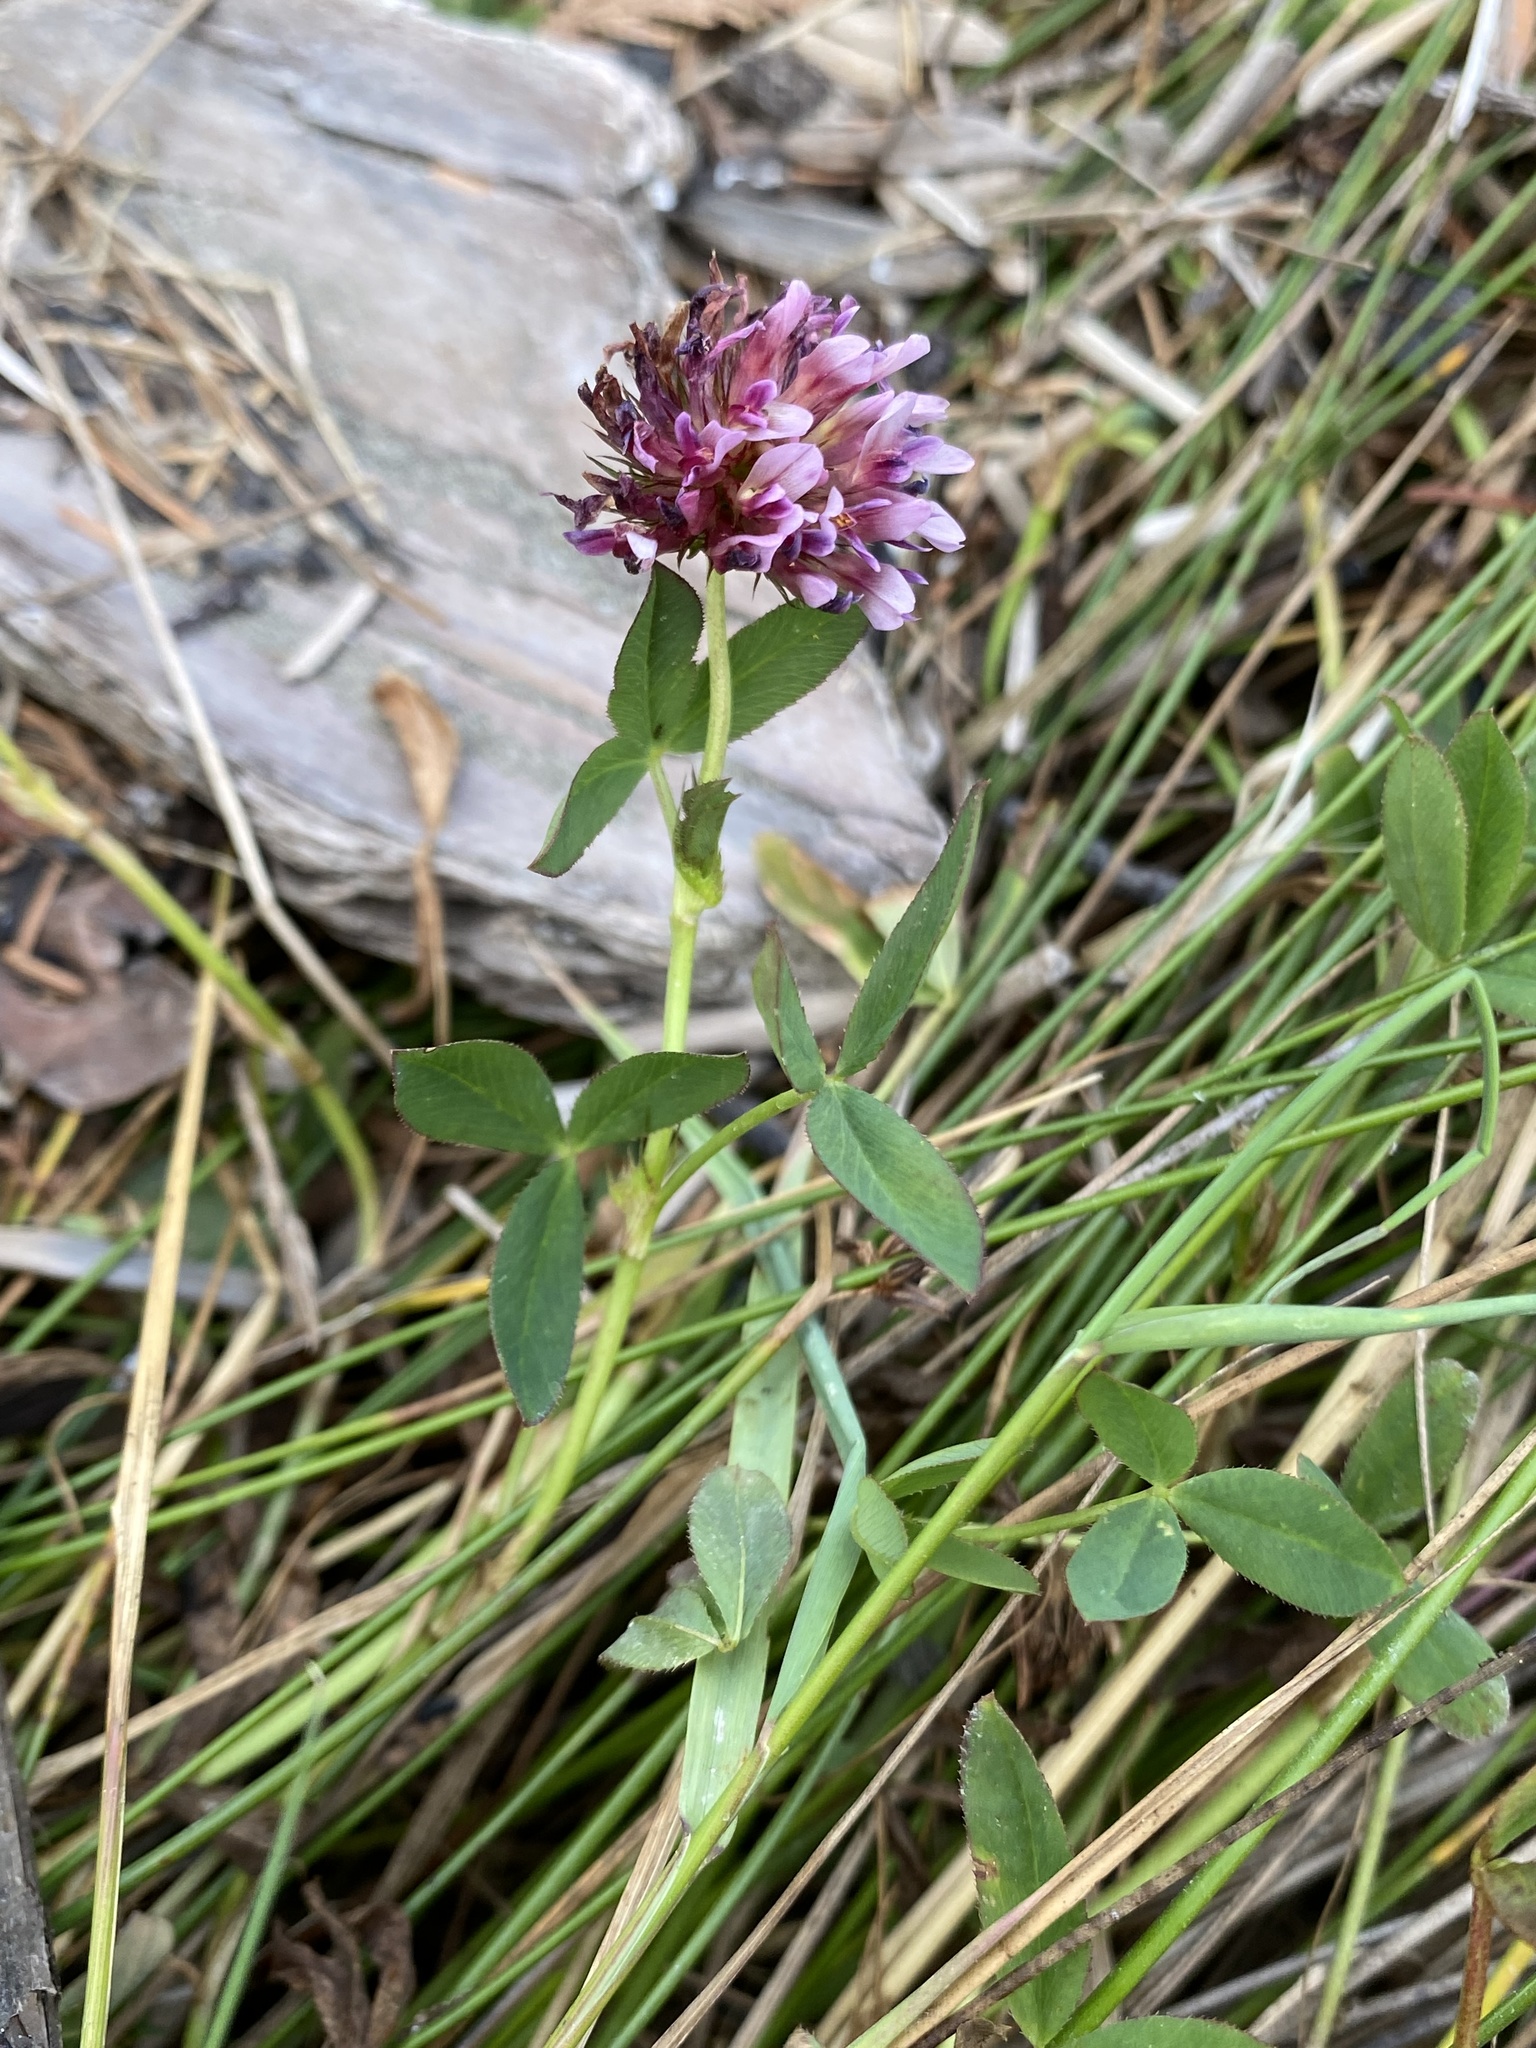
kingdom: Plantae
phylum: Tracheophyta
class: Magnoliopsida
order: Fabales
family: Fabaceae
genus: Trifolium
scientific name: Trifolium wormskioldii
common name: Springbank clover
